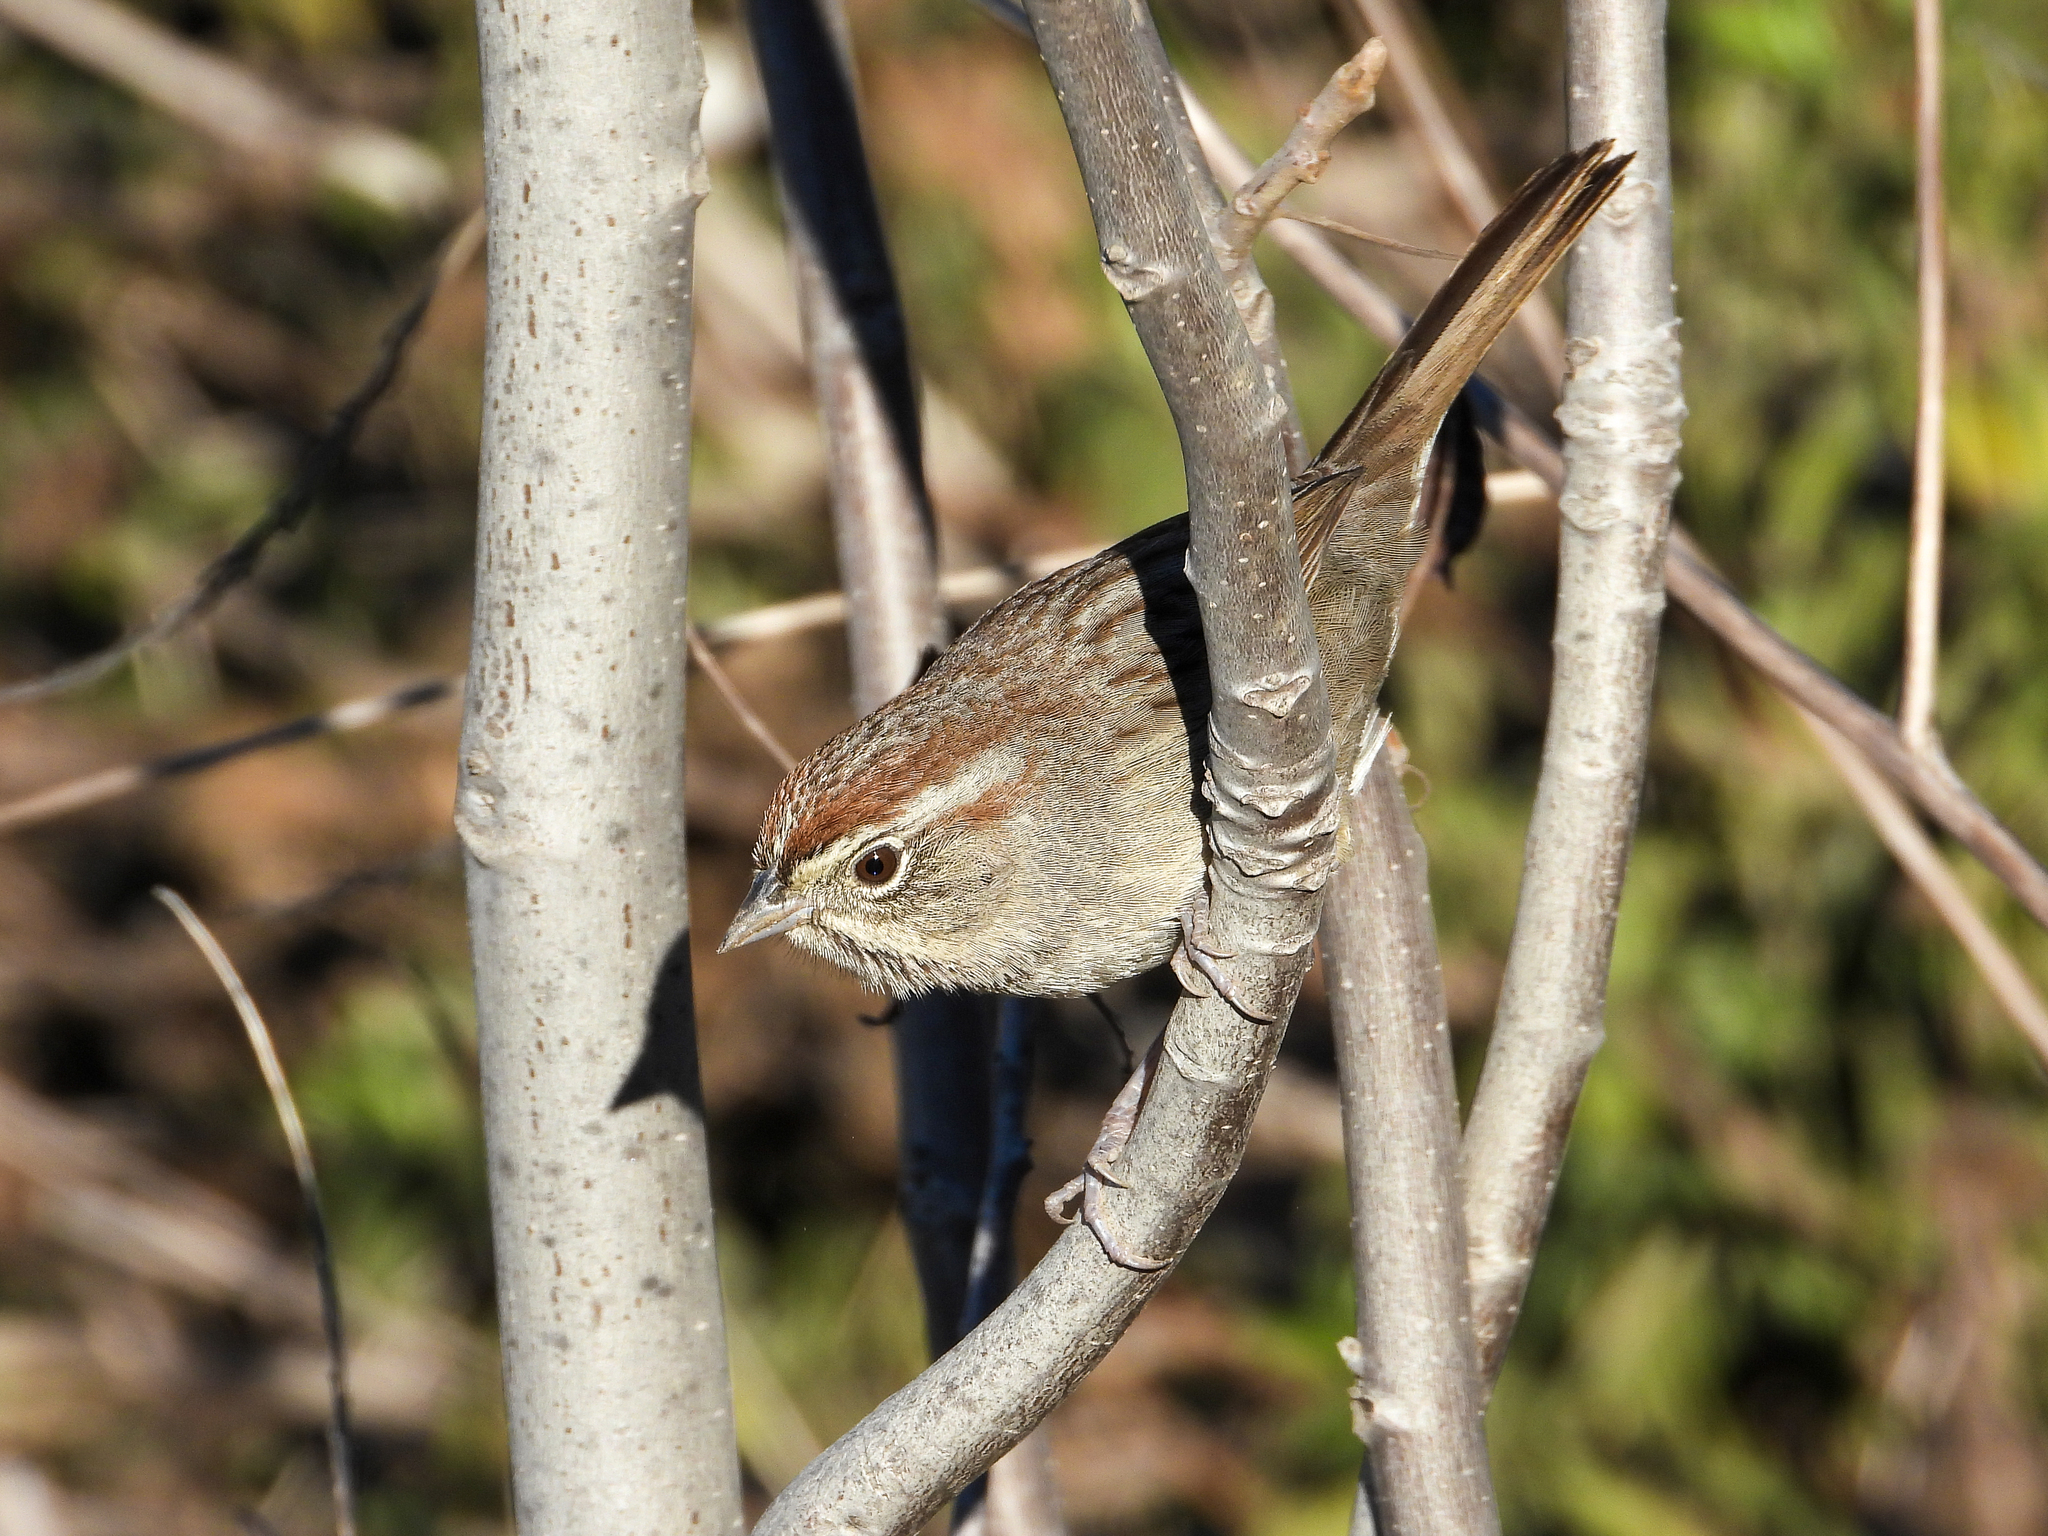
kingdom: Animalia
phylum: Chordata
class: Aves
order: Passeriformes
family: Passerellidae
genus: Aimophila
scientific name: Aimophila ruficeps
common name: Rufous-crowned sparrow
